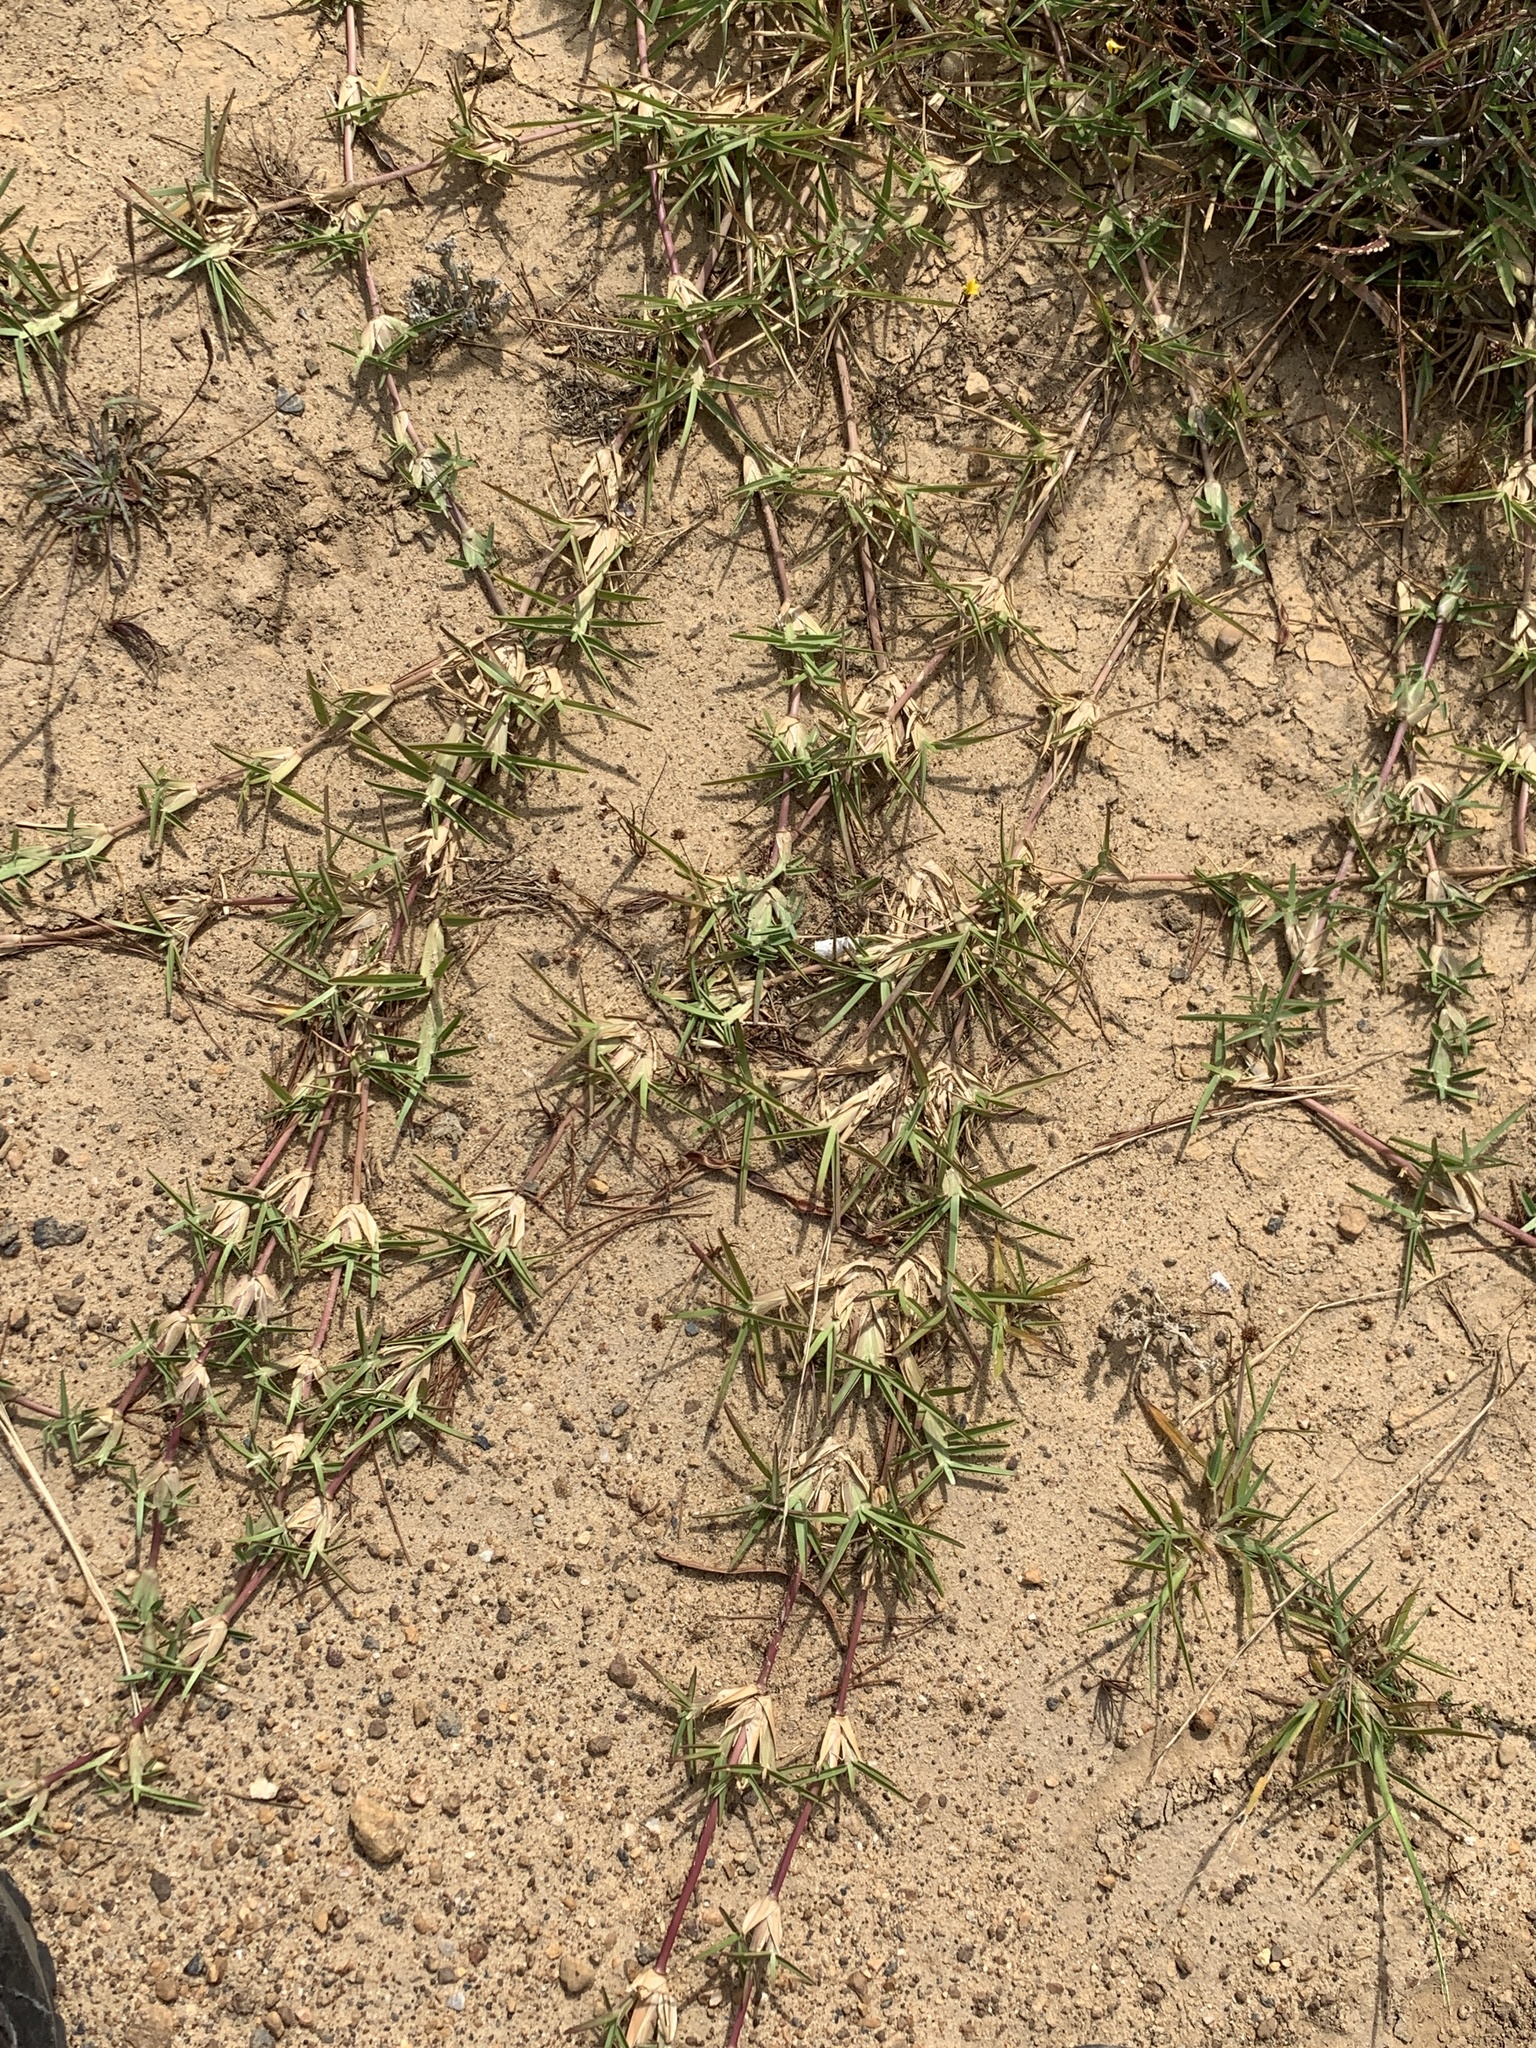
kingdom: Plantae
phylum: Tracheophyta
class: Liliopsida
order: Poales
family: Poaceae
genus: Stenotaphrum
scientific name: Stenotaphrum secundatum
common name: St. augustine grass
